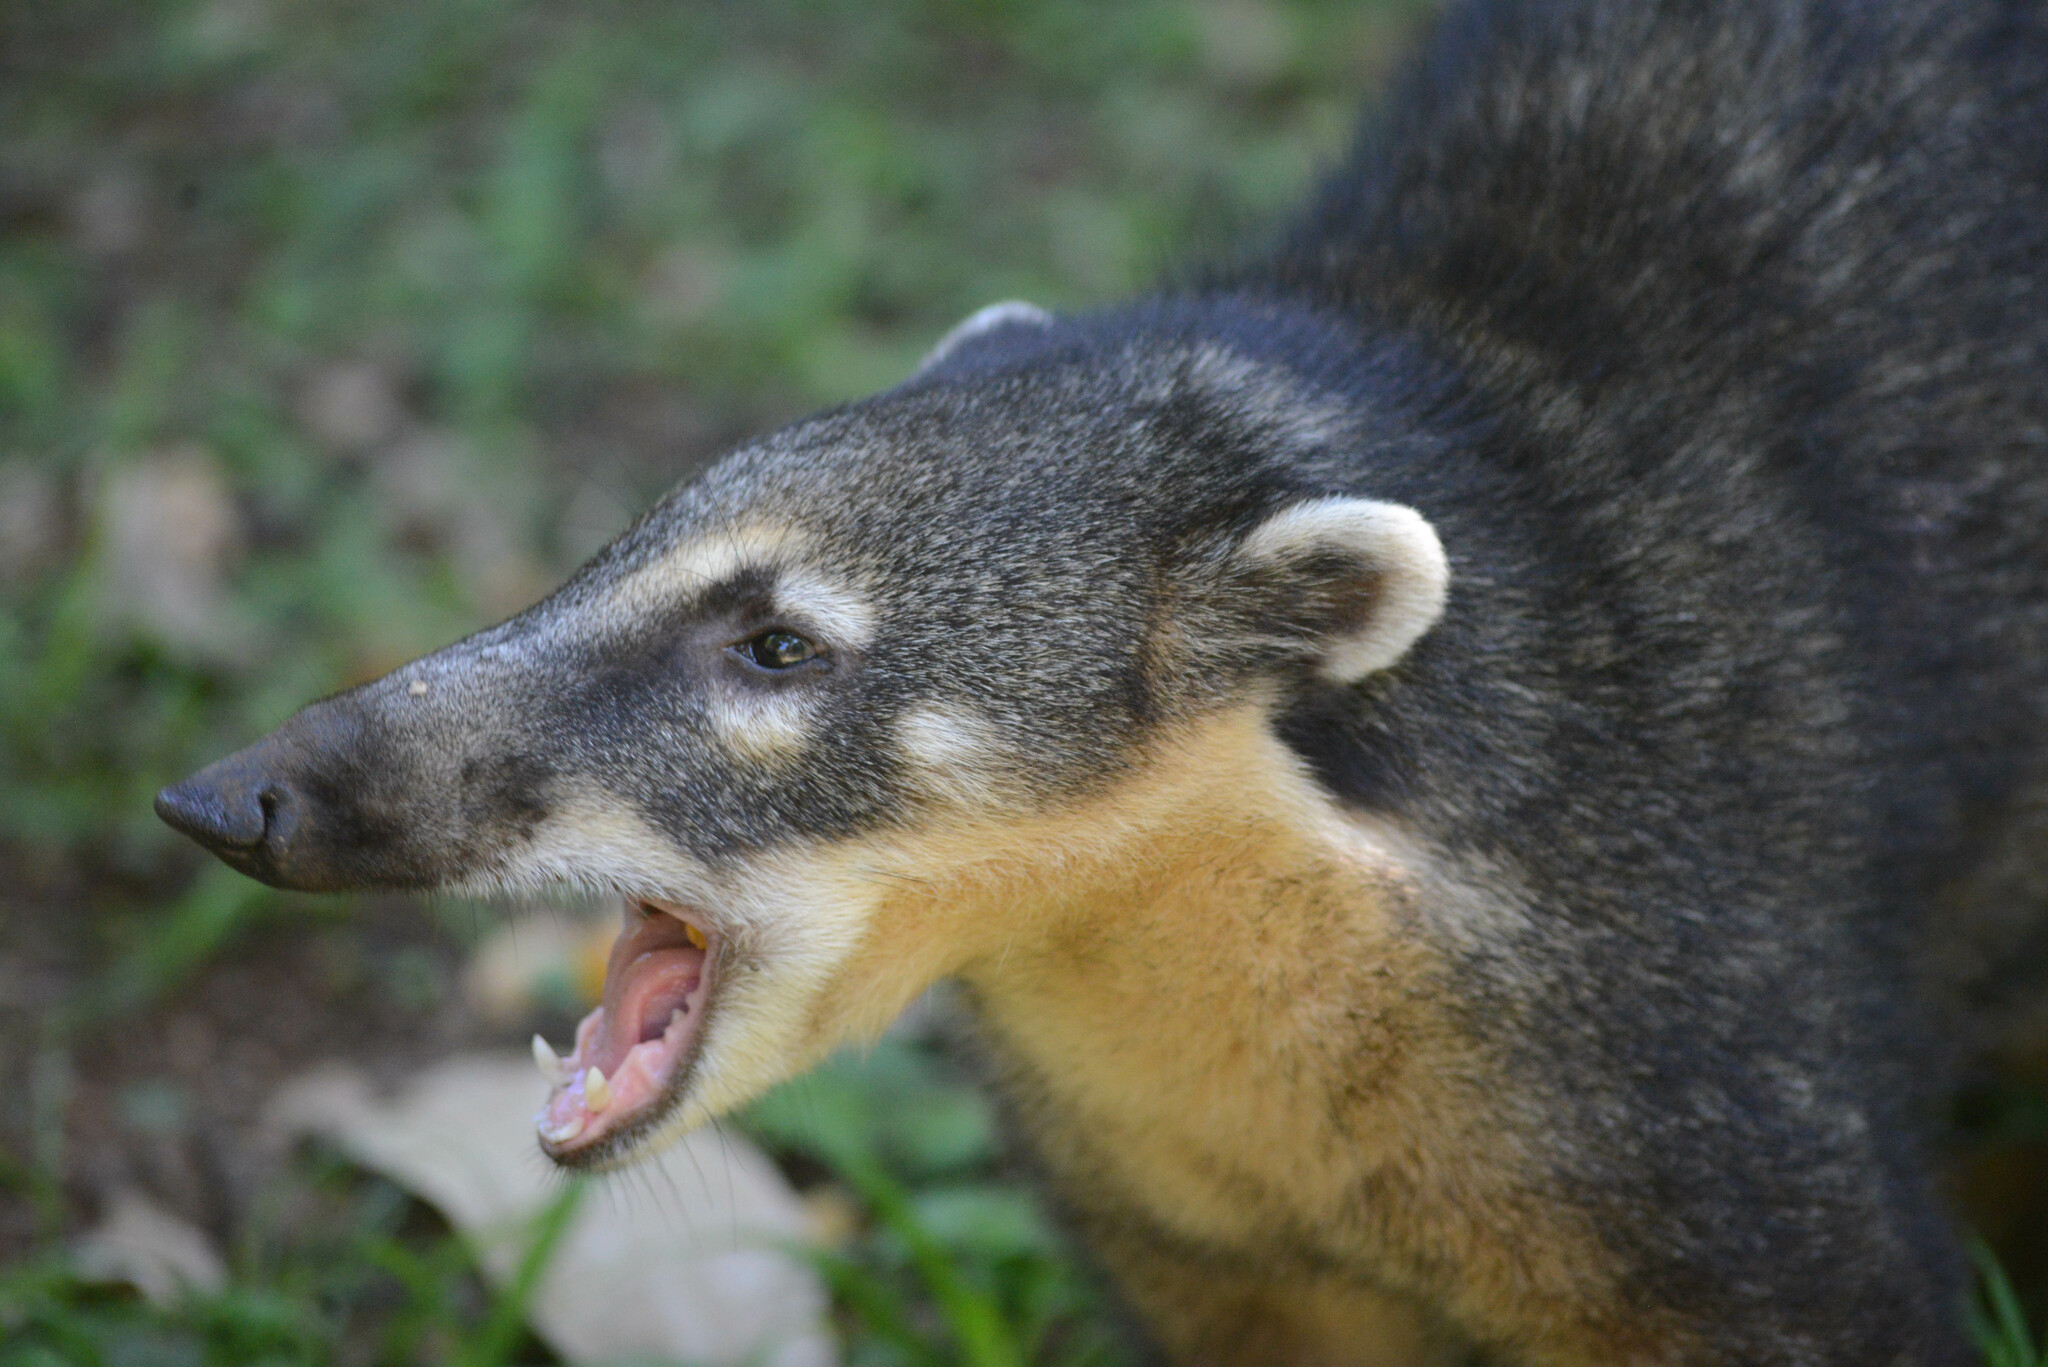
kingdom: Animalia
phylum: Chordata
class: Mammalia
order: Carnivora
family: Procyonidae
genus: Nasua
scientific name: Nasua nasua
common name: South american coati
